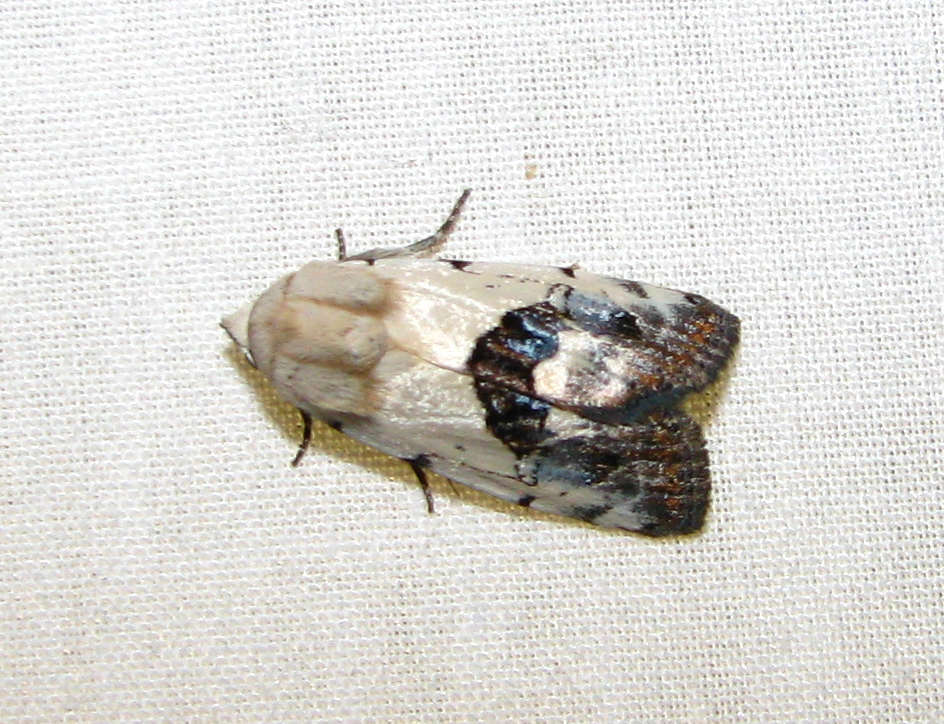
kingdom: Animalia
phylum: Arthropoda
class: Insecta
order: Lepidoptera
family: Nolidae
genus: Armactica
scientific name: Armactica conchidia
